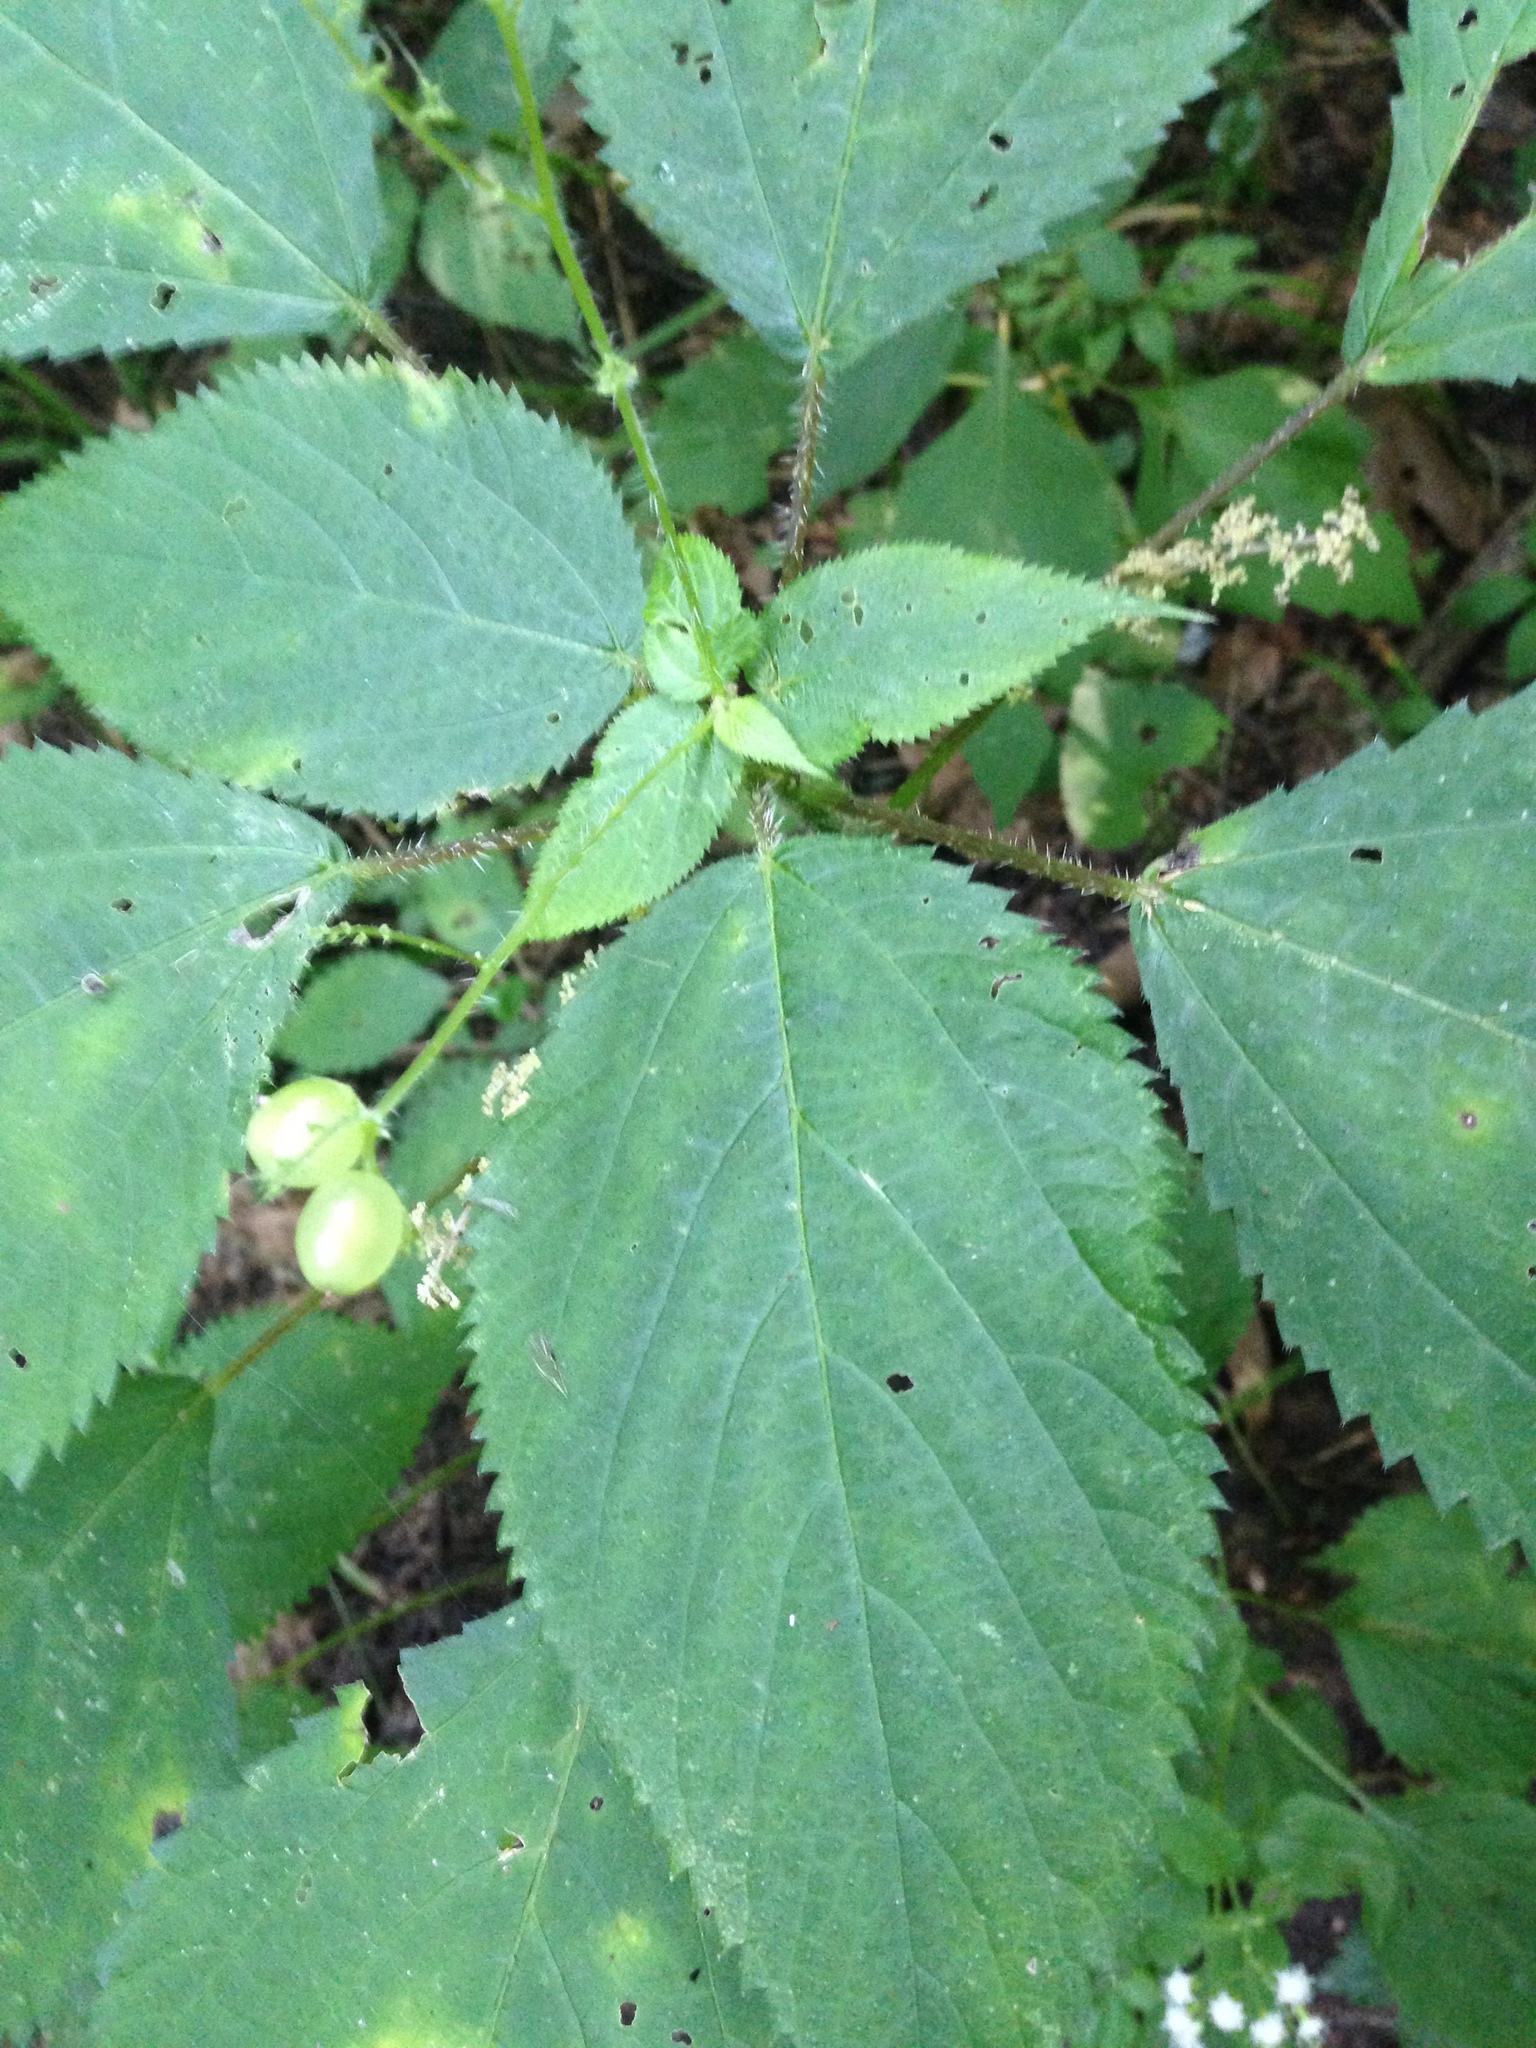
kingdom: Plantae
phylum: Tracheophyta
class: Magnoliopsida
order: Rosales
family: Urticaceae
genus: Laportea
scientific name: Laportea canadensis
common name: Canada nettle
